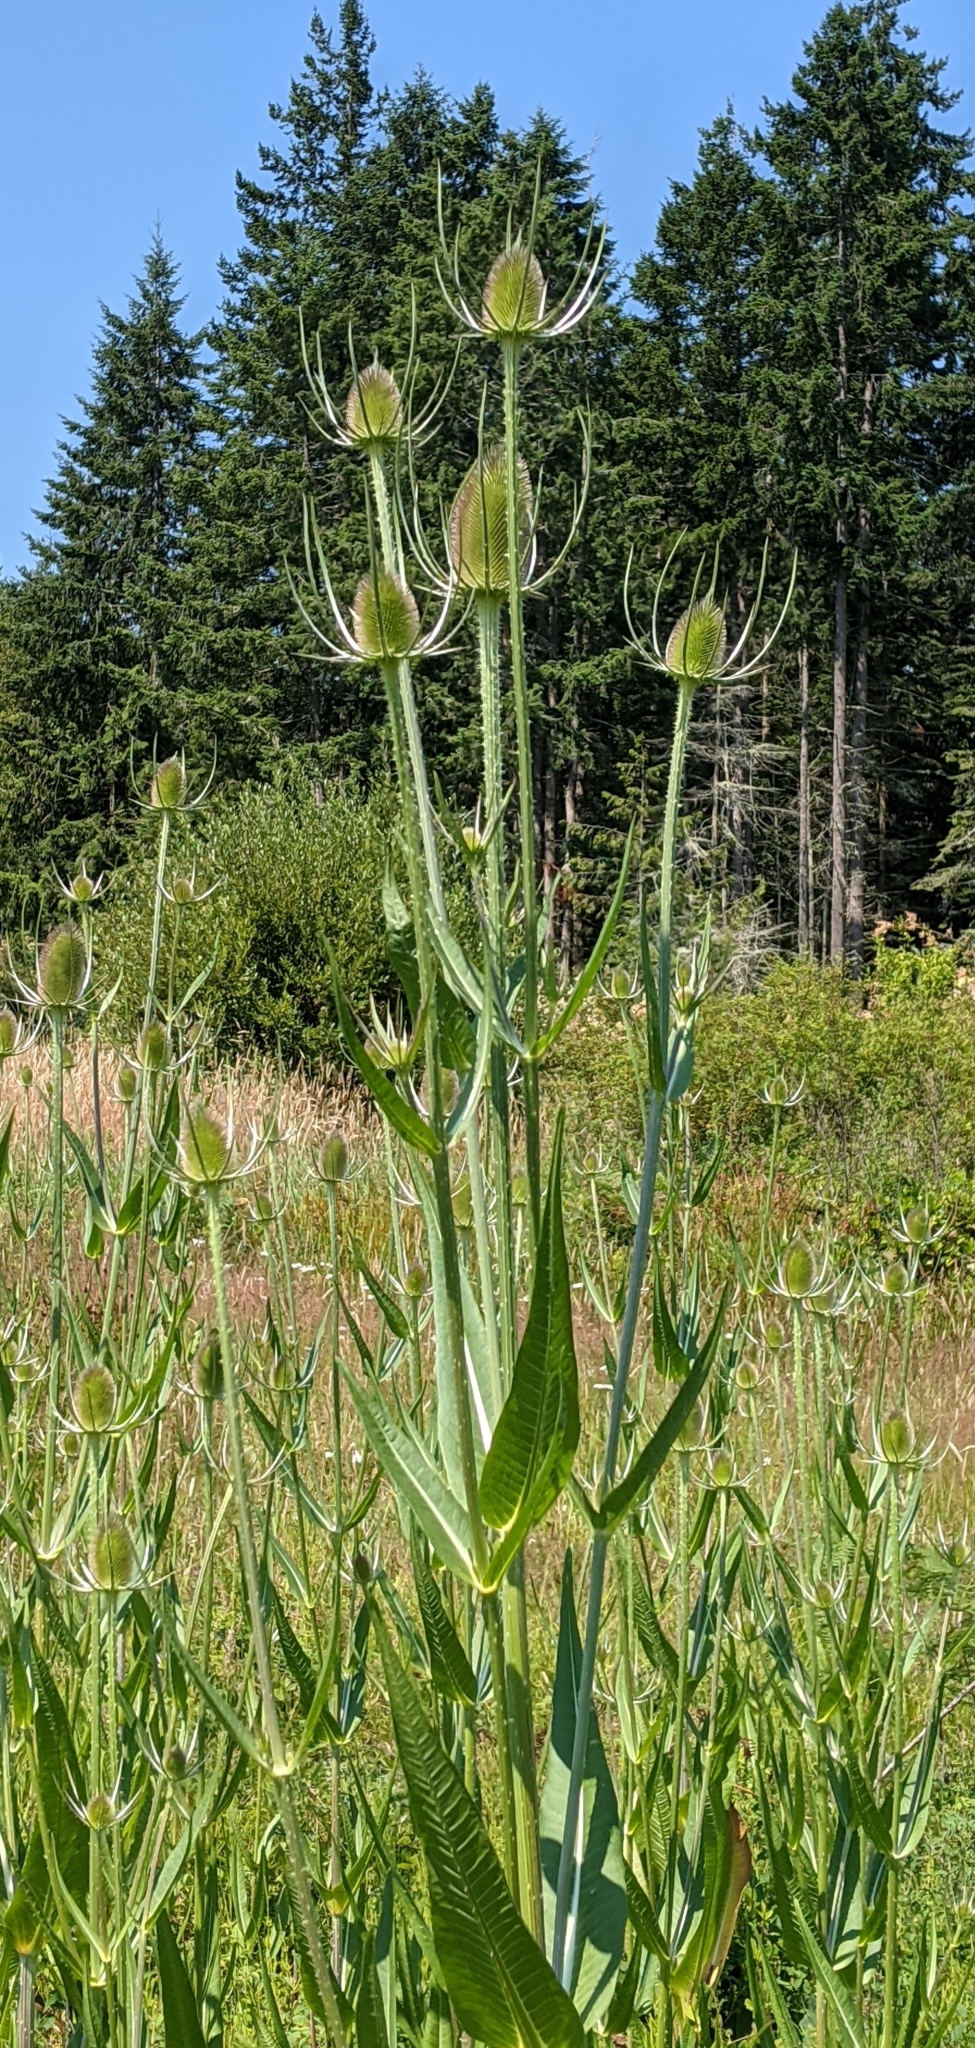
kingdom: Plantae
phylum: Tracheophyta
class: Magnoliopsida
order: Dipsacales
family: Caprifoliaceae
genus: Dipsacus
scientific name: Dipsacus fullonum
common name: Teasel
